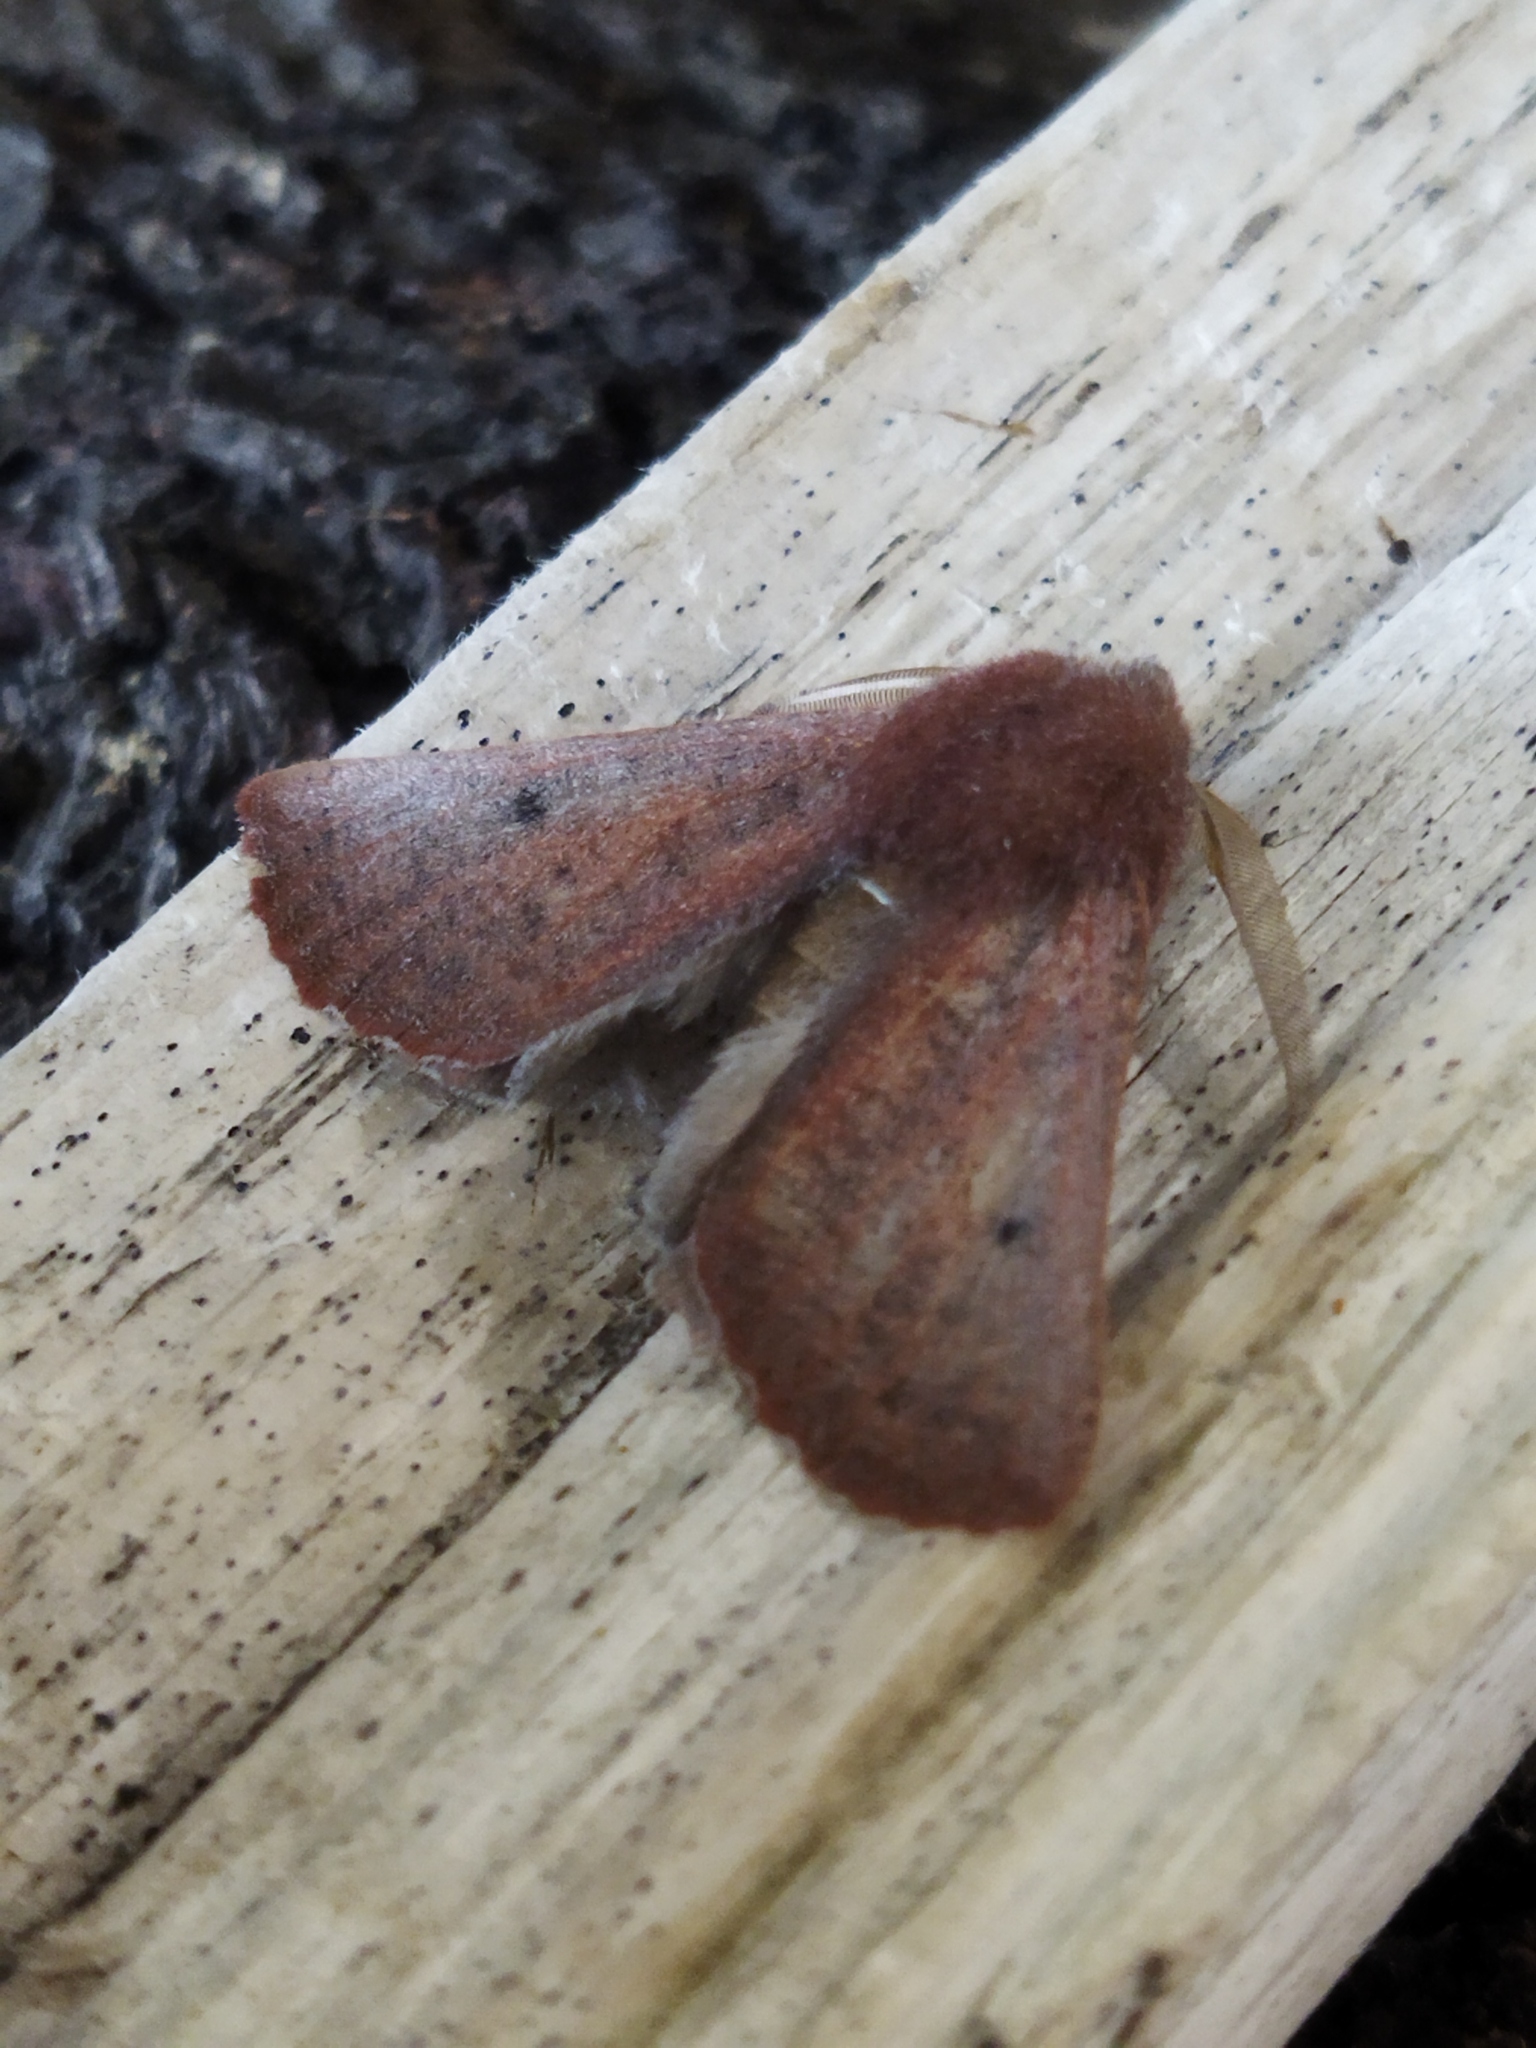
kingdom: Animalia
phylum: Arthropoda
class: Insecta
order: Lepidoptera
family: Geometridae
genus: Dasycorsa
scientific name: Dasycorsa modesta
